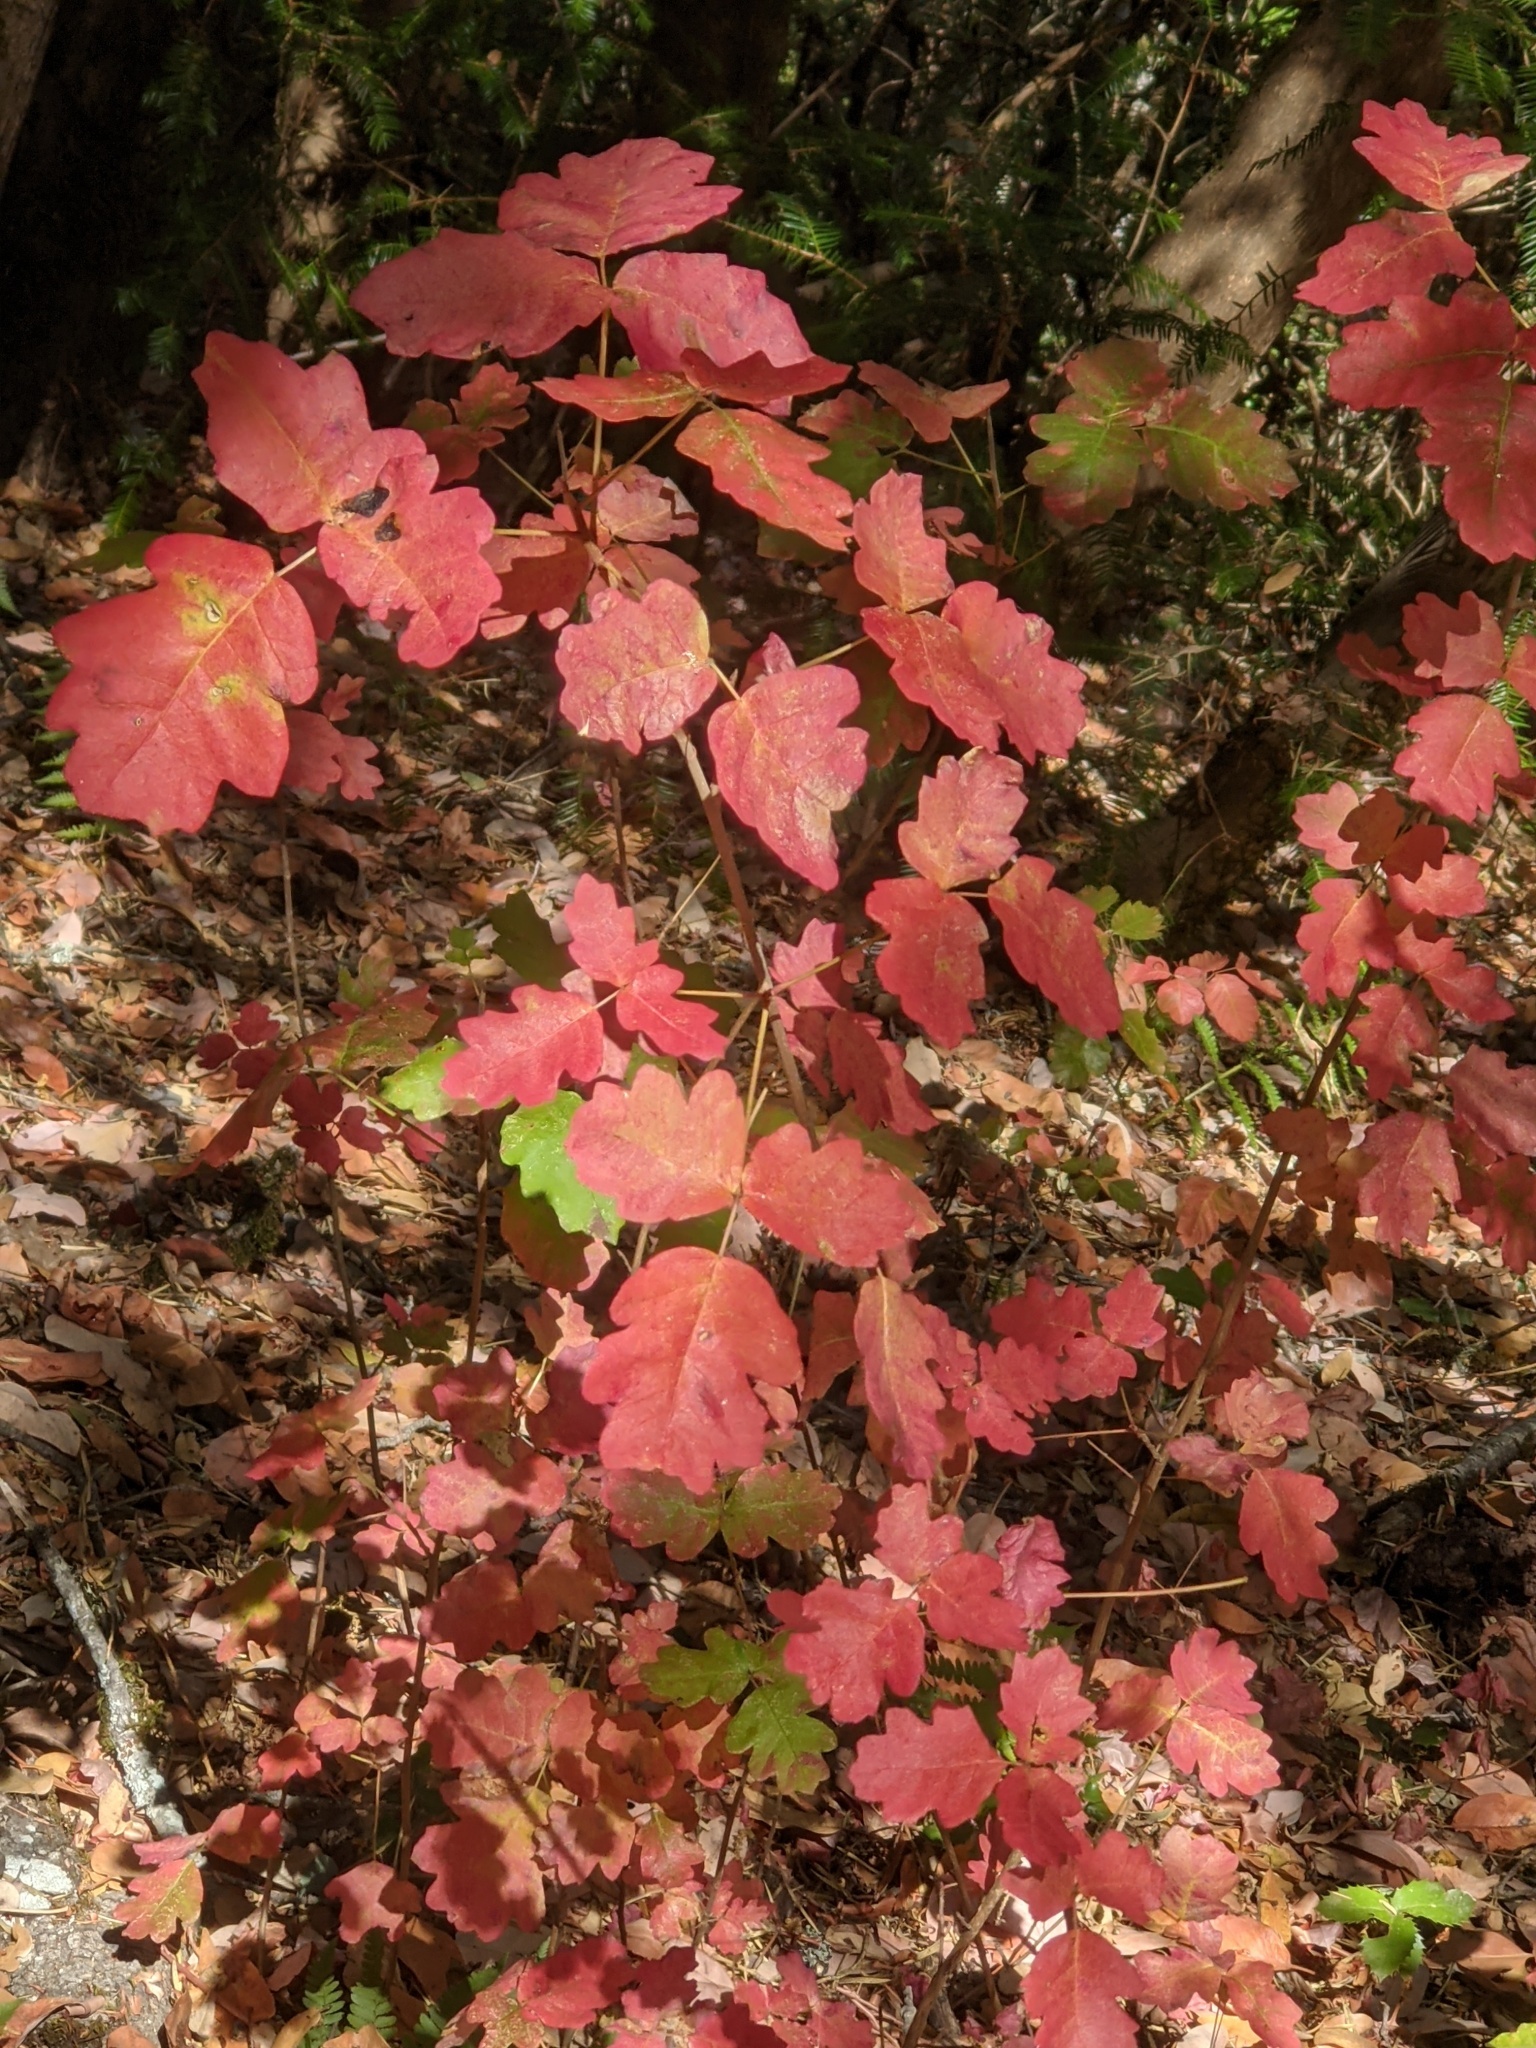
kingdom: Plantae
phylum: Tracheophyta
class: Magnoliopsida
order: Sapindales
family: Anacardiaceae
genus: Toxicodendron
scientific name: Toxicodendron diversilobum
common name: Pacific poison-oak
